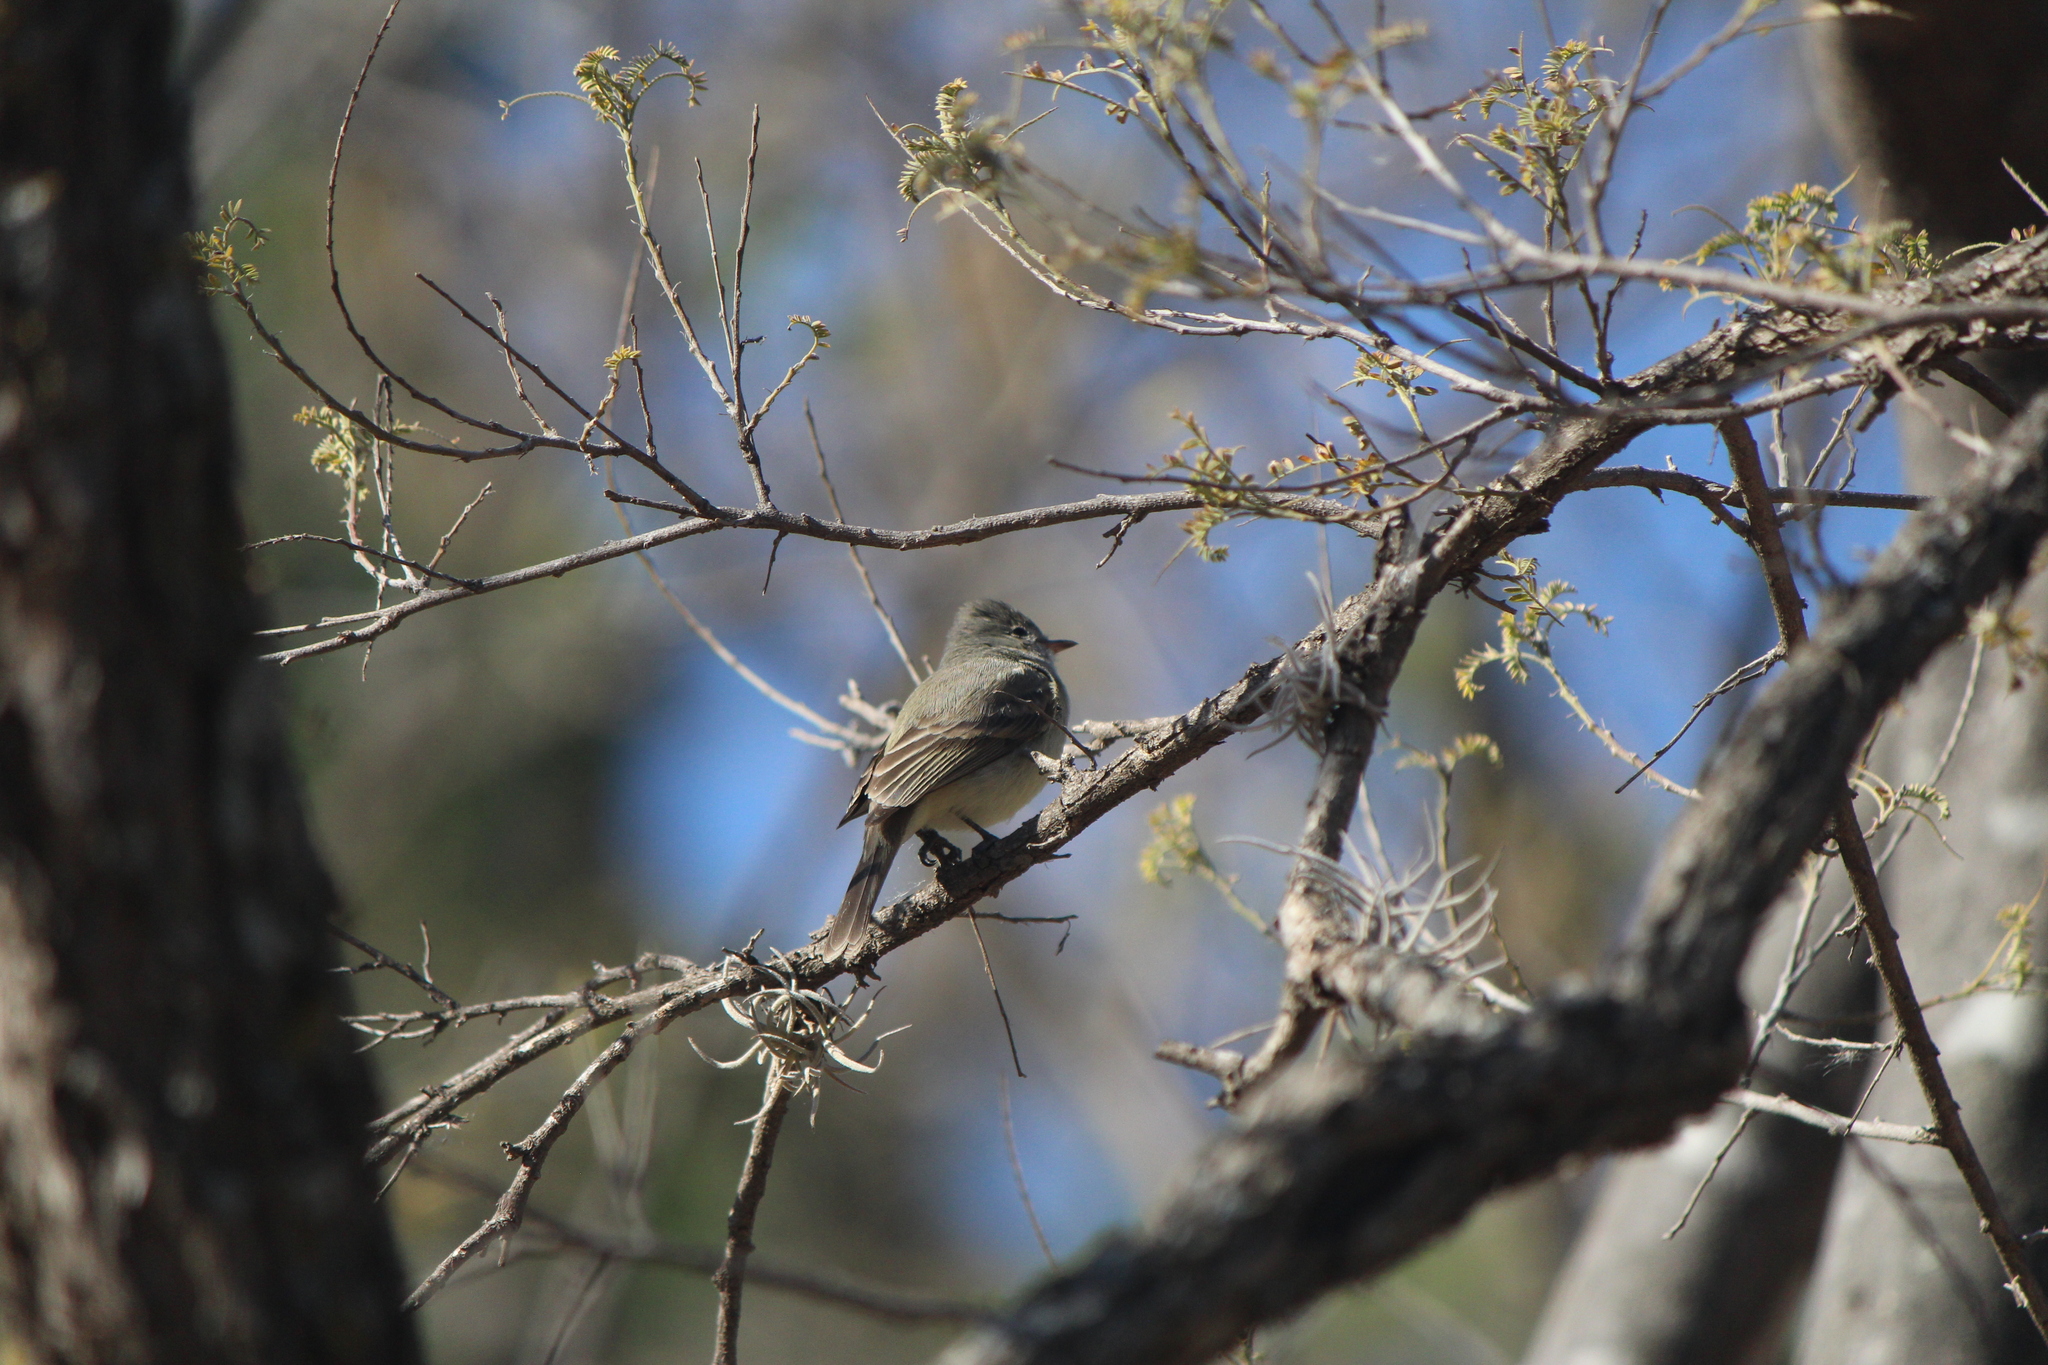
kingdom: Animalia
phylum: Chordata
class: Aves
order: Passeriformes
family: Tyrannidae
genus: Camptostoma
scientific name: Camptostoma imberbe
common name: Northern beardless-tyrannulet
